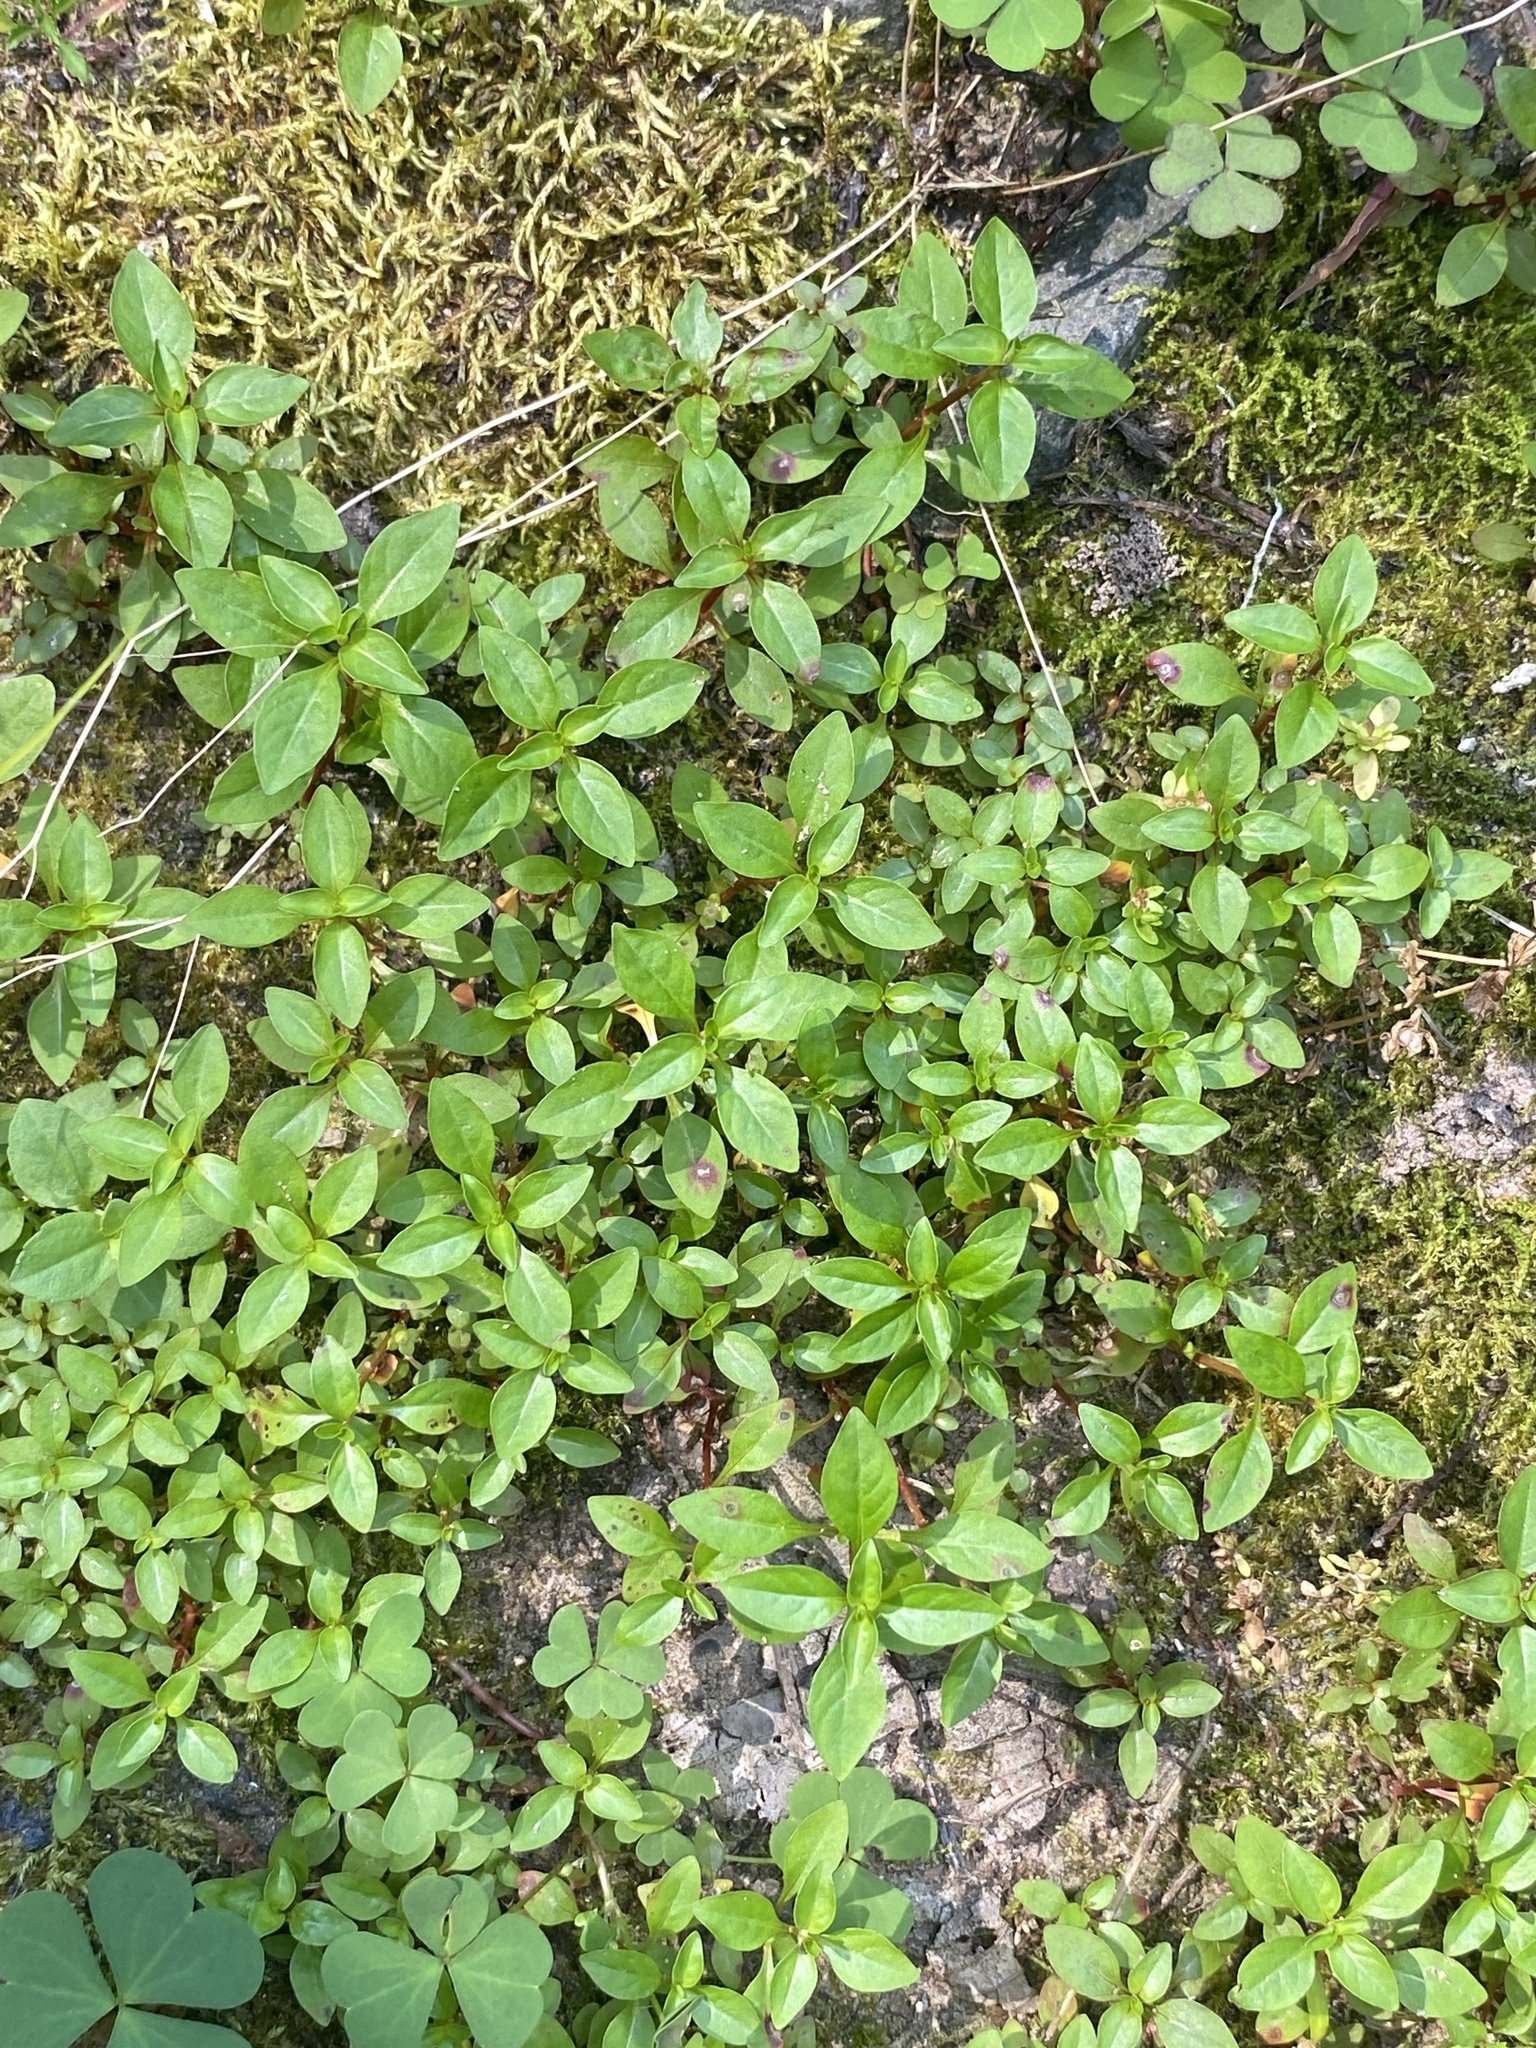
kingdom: Plantae
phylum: Tracheophyta
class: Magnoliopsida
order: Myrtales
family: Onagraceae
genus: Ludwigia
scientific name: Ludwigia palustris
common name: Hampshire-purslane
